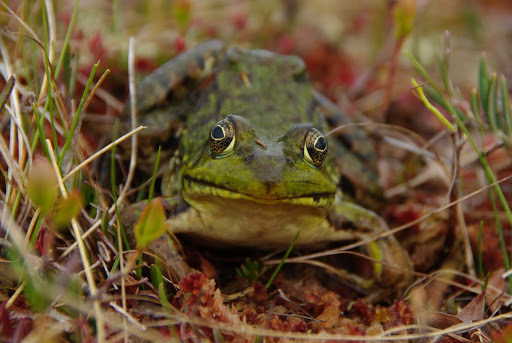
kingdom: Animalia
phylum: Chordata
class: Amphibia
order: Anura
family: Ranidae
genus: Lithobates
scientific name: Lithobates clamitans
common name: Green frog
